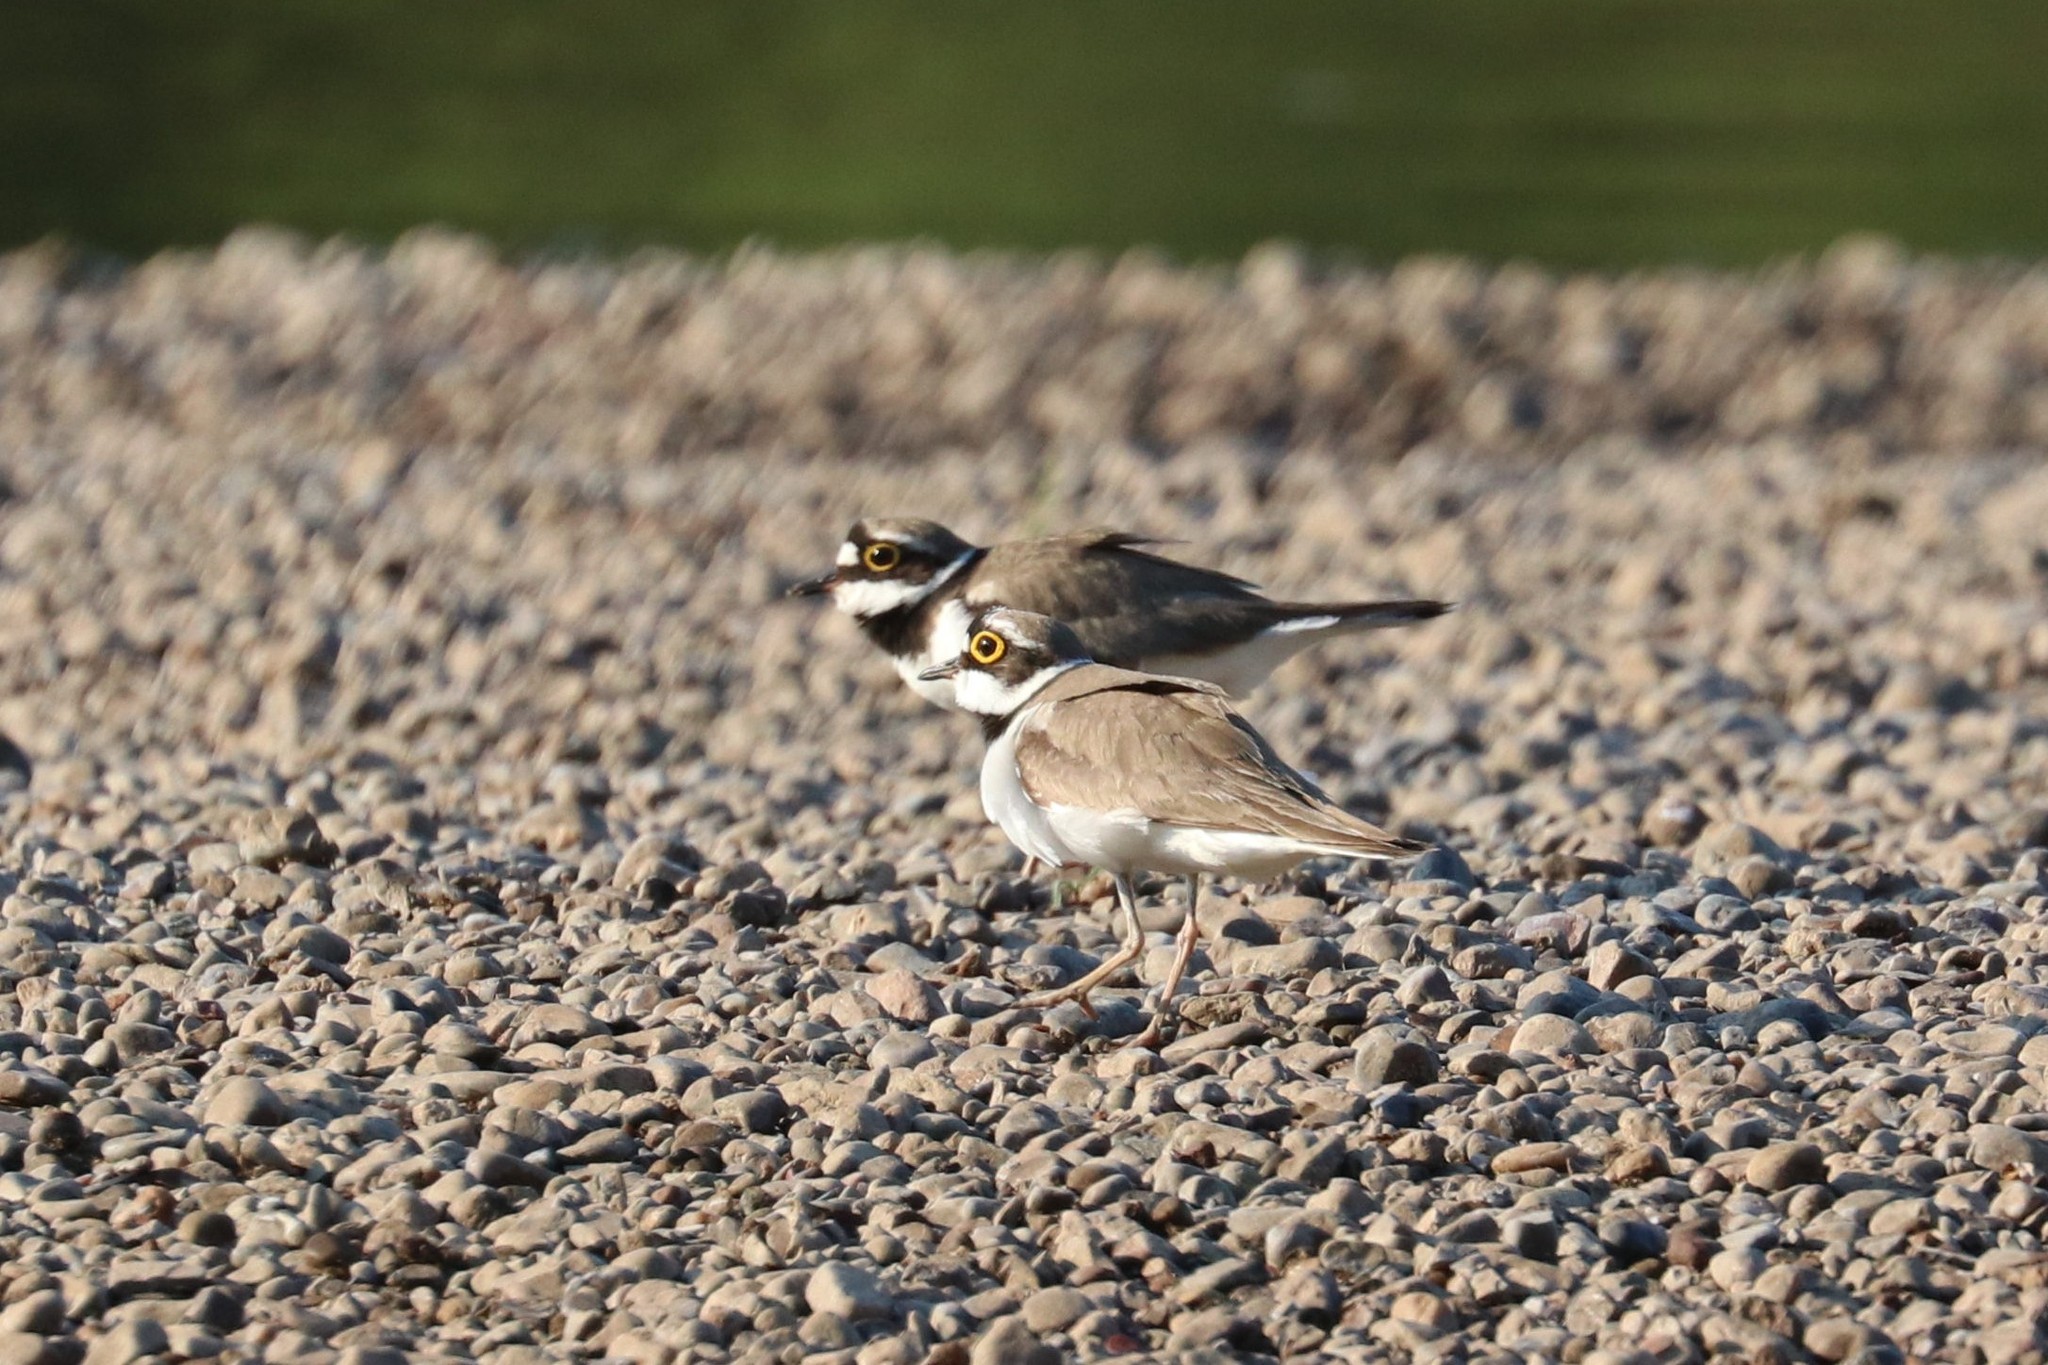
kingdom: Animalia
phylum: Chordata
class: Aves
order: Charadriiformes
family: Charadriidae
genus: Charadrius
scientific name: Charadrius dubius
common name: Little ringed plover
